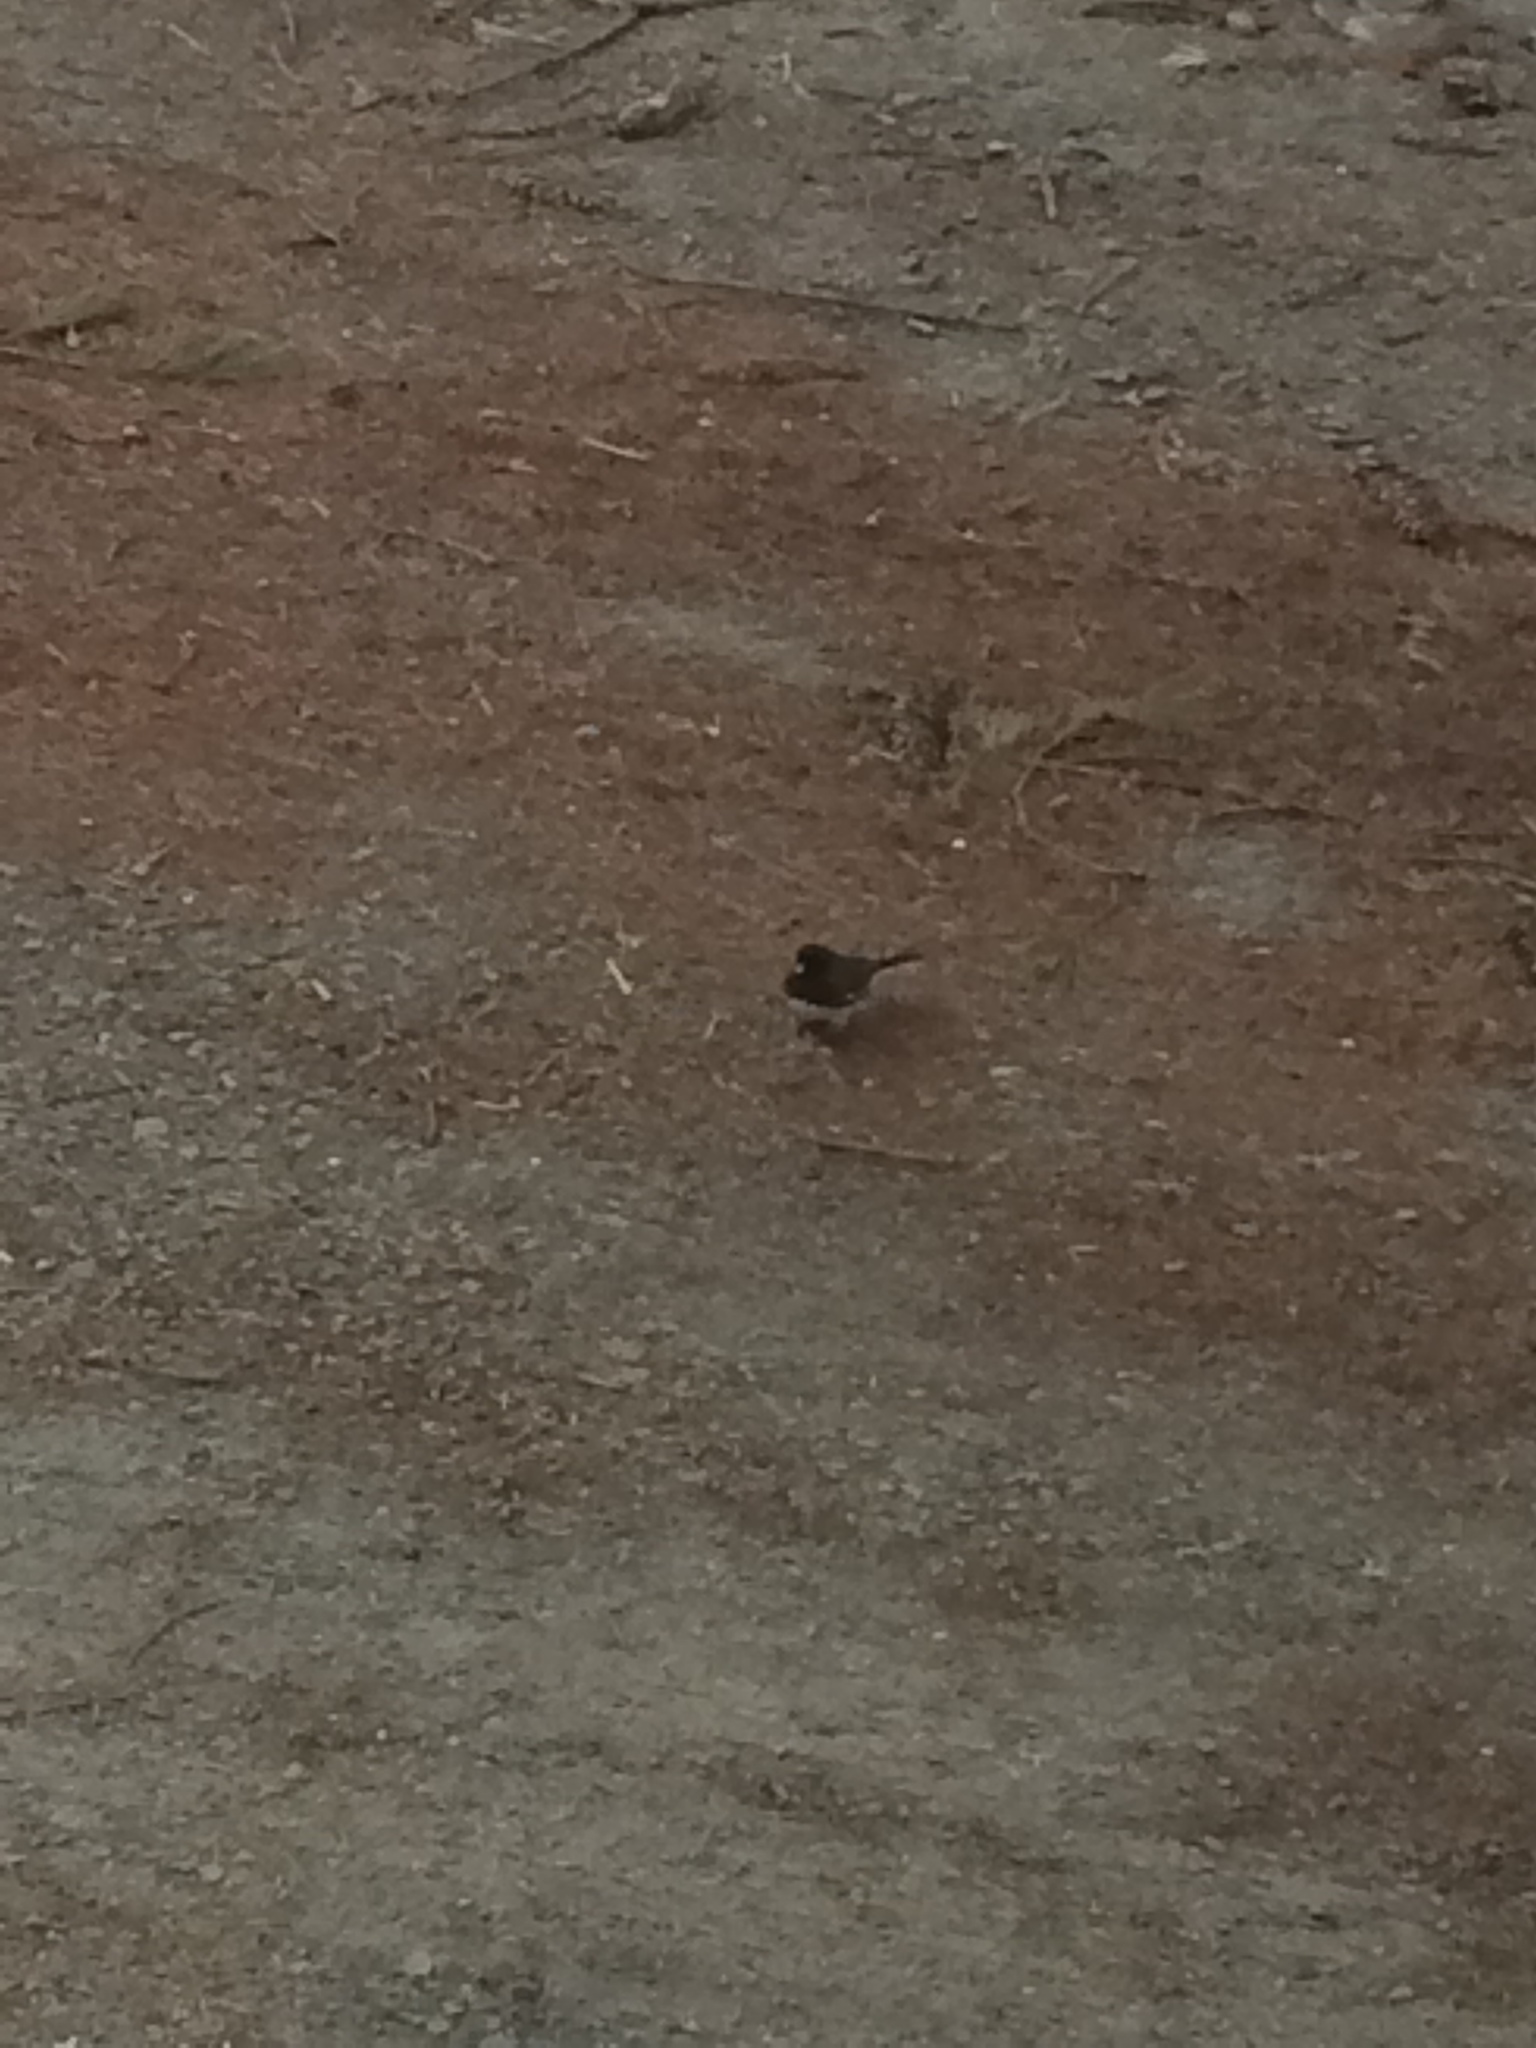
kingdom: Animalia
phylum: Chordata
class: Aves
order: Passeriformes
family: Passerellidae
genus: Junco
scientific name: Junco hyemalis
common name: Dark-eyed junco
